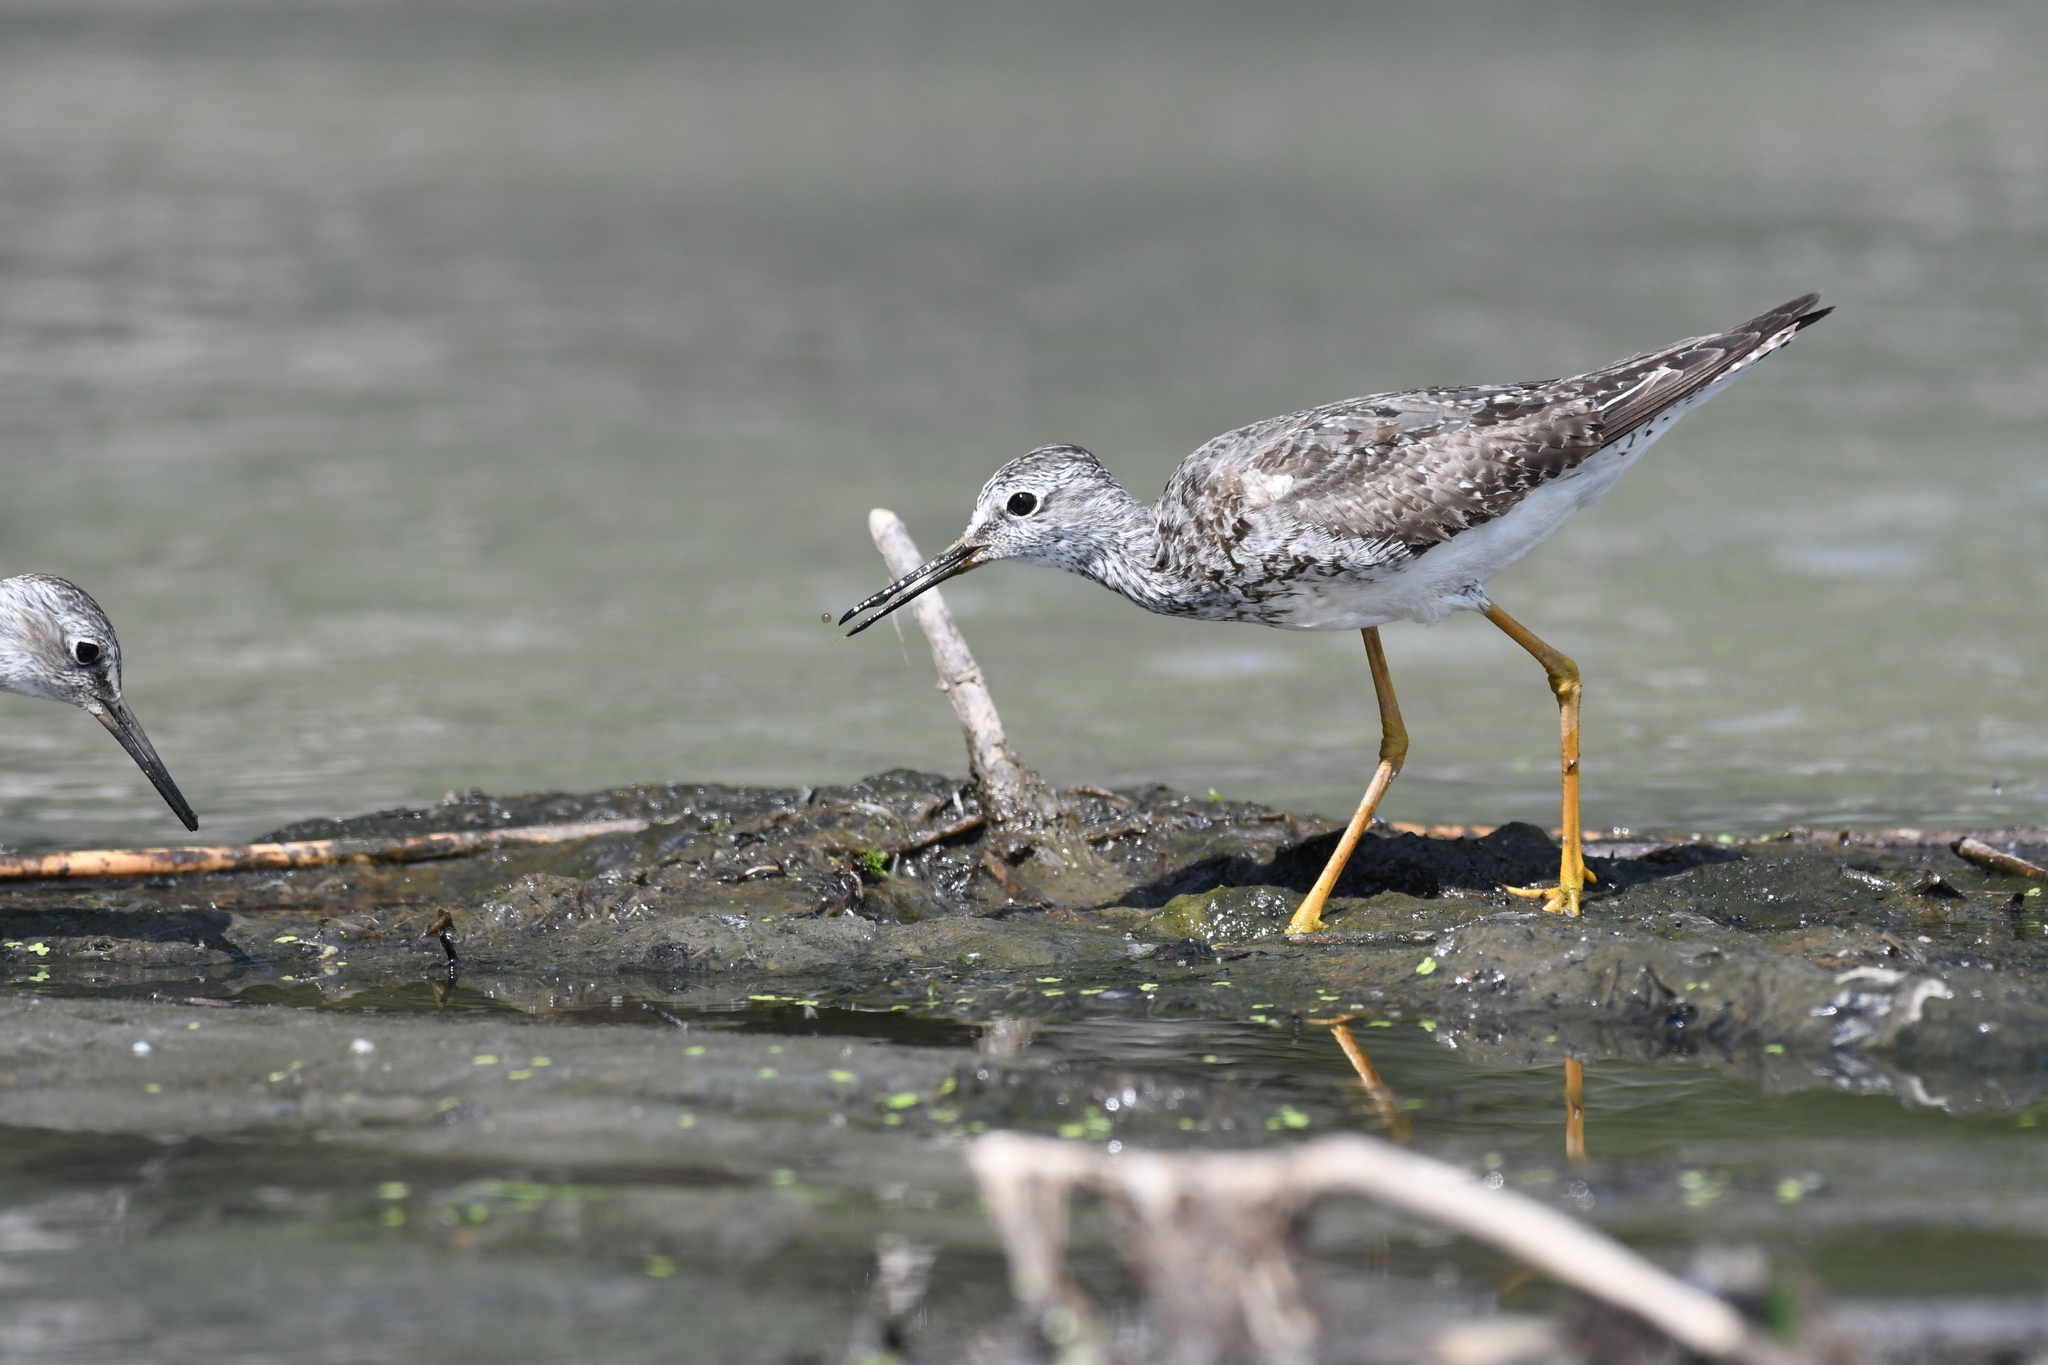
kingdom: Animalia
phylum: Chordata
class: Aves
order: Charadriiformes
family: Scolopacidae
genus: Tringa
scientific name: Tringa flavipes
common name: Lesser yellowlegs
